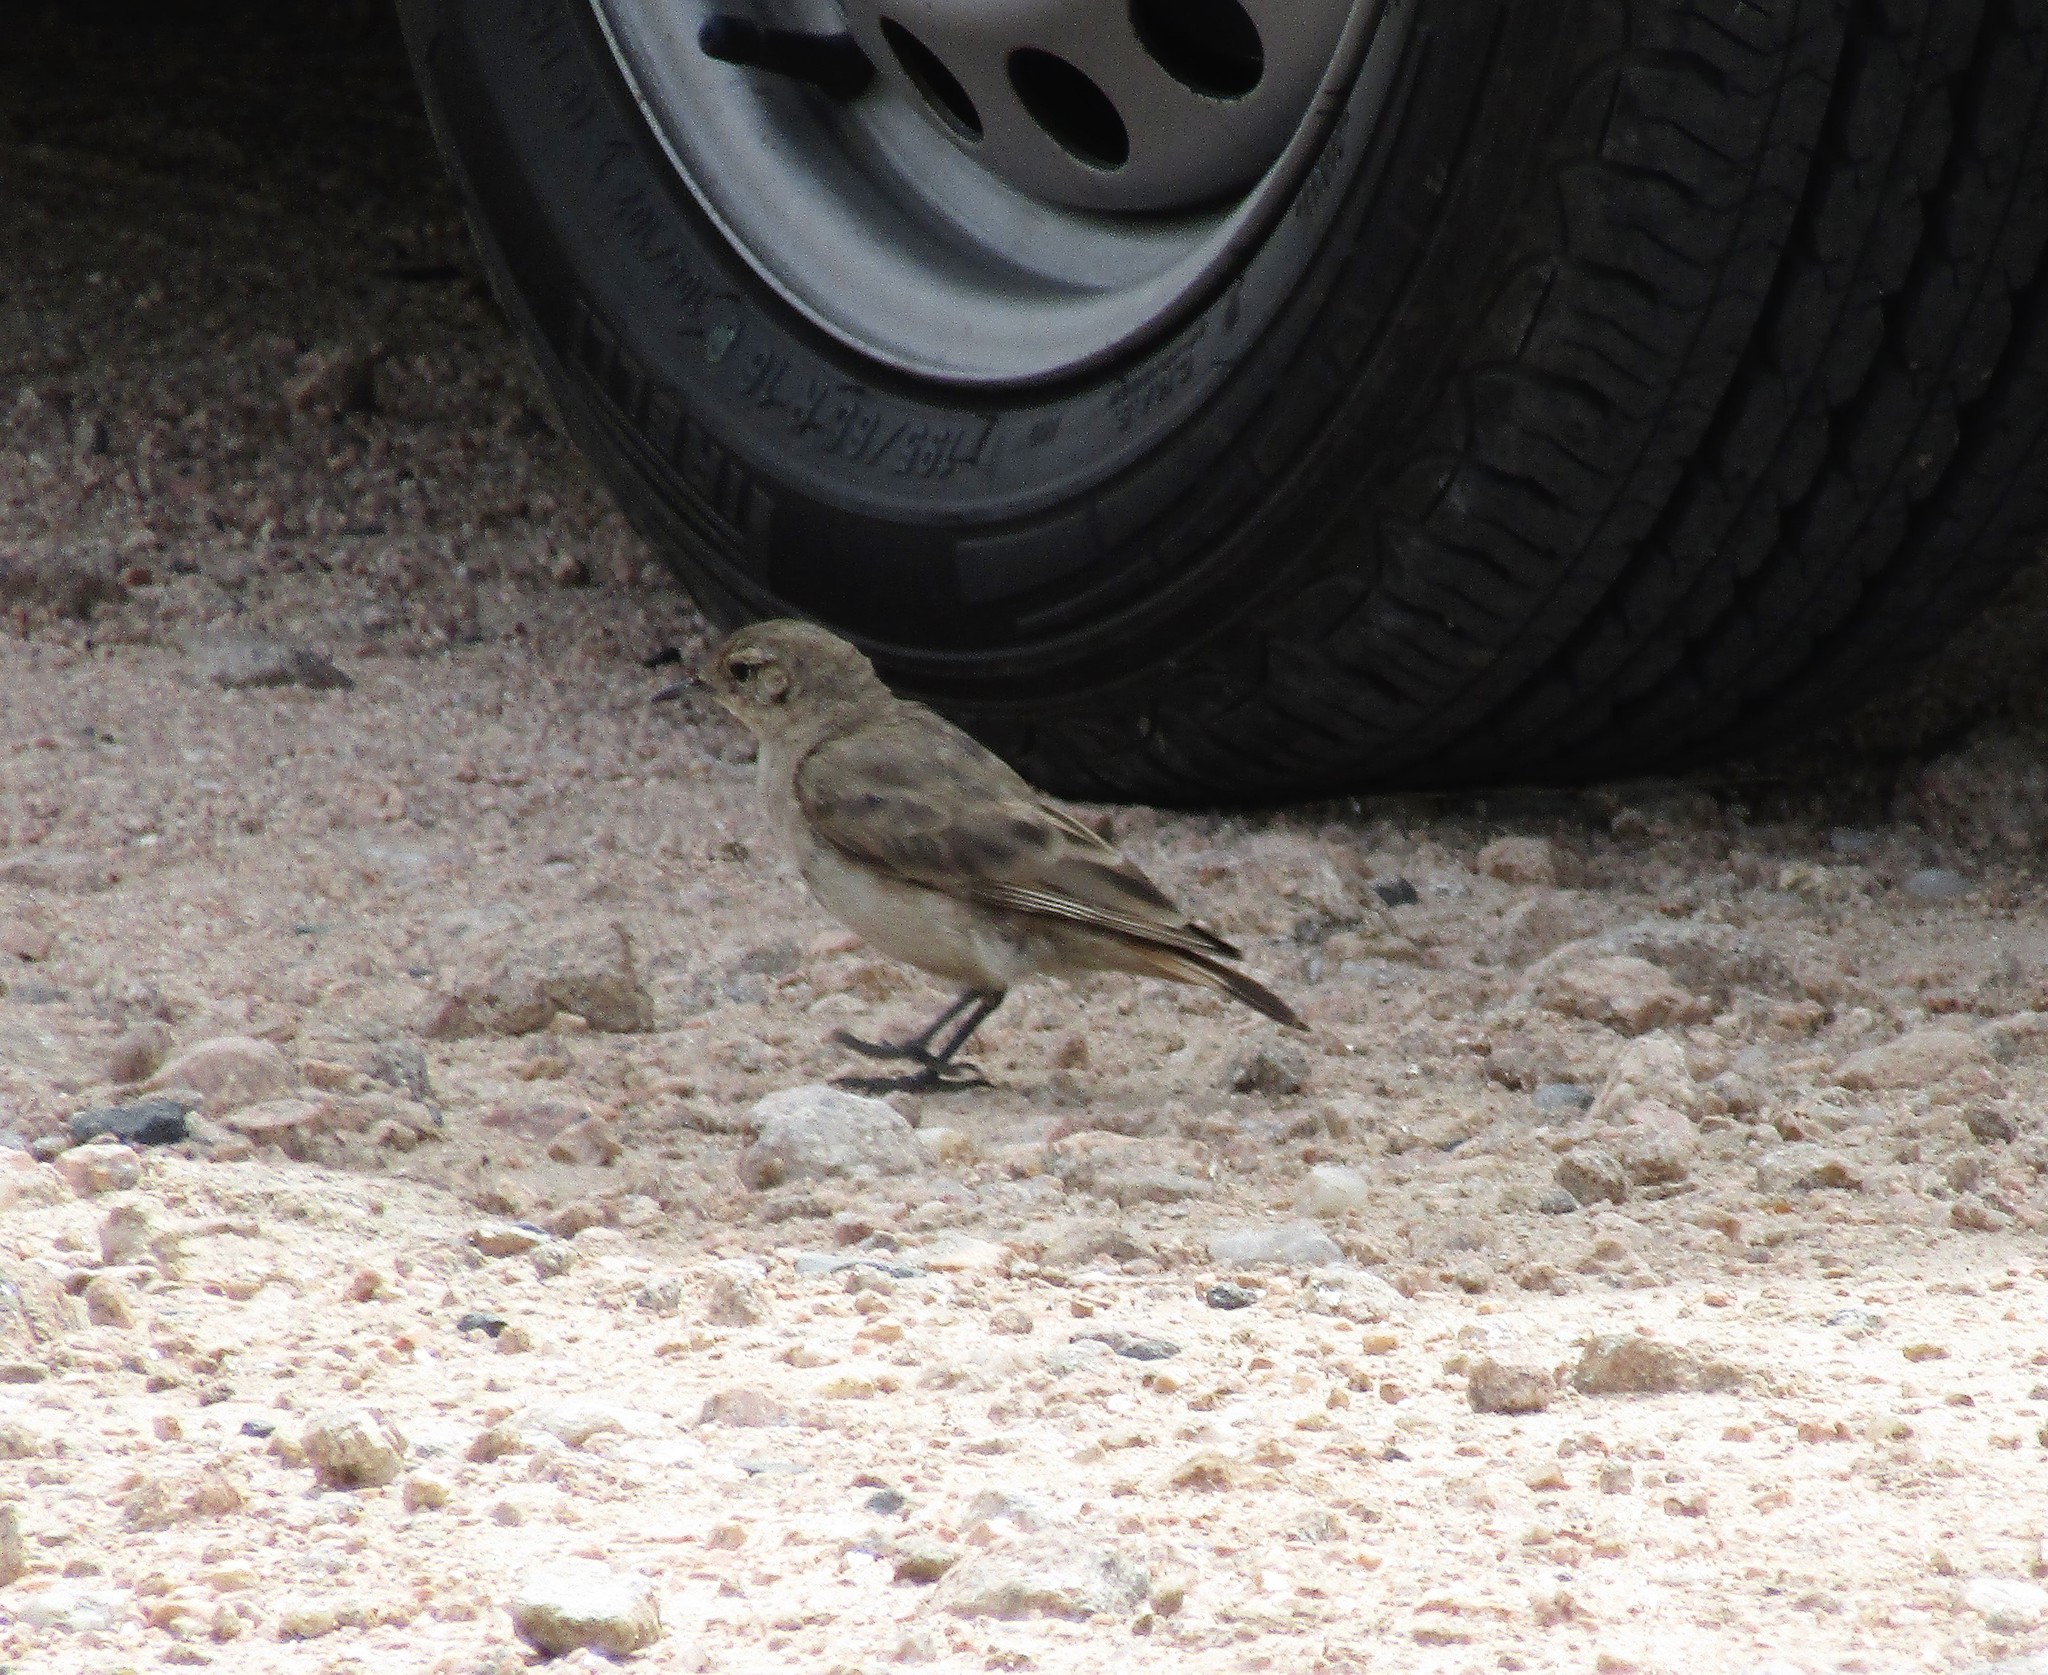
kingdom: Animalia
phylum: Chordata
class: Aves
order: Passeriformes
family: Furnariidae
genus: Geositta
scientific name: Geositta rufipennis
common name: Rufous-banded miner
